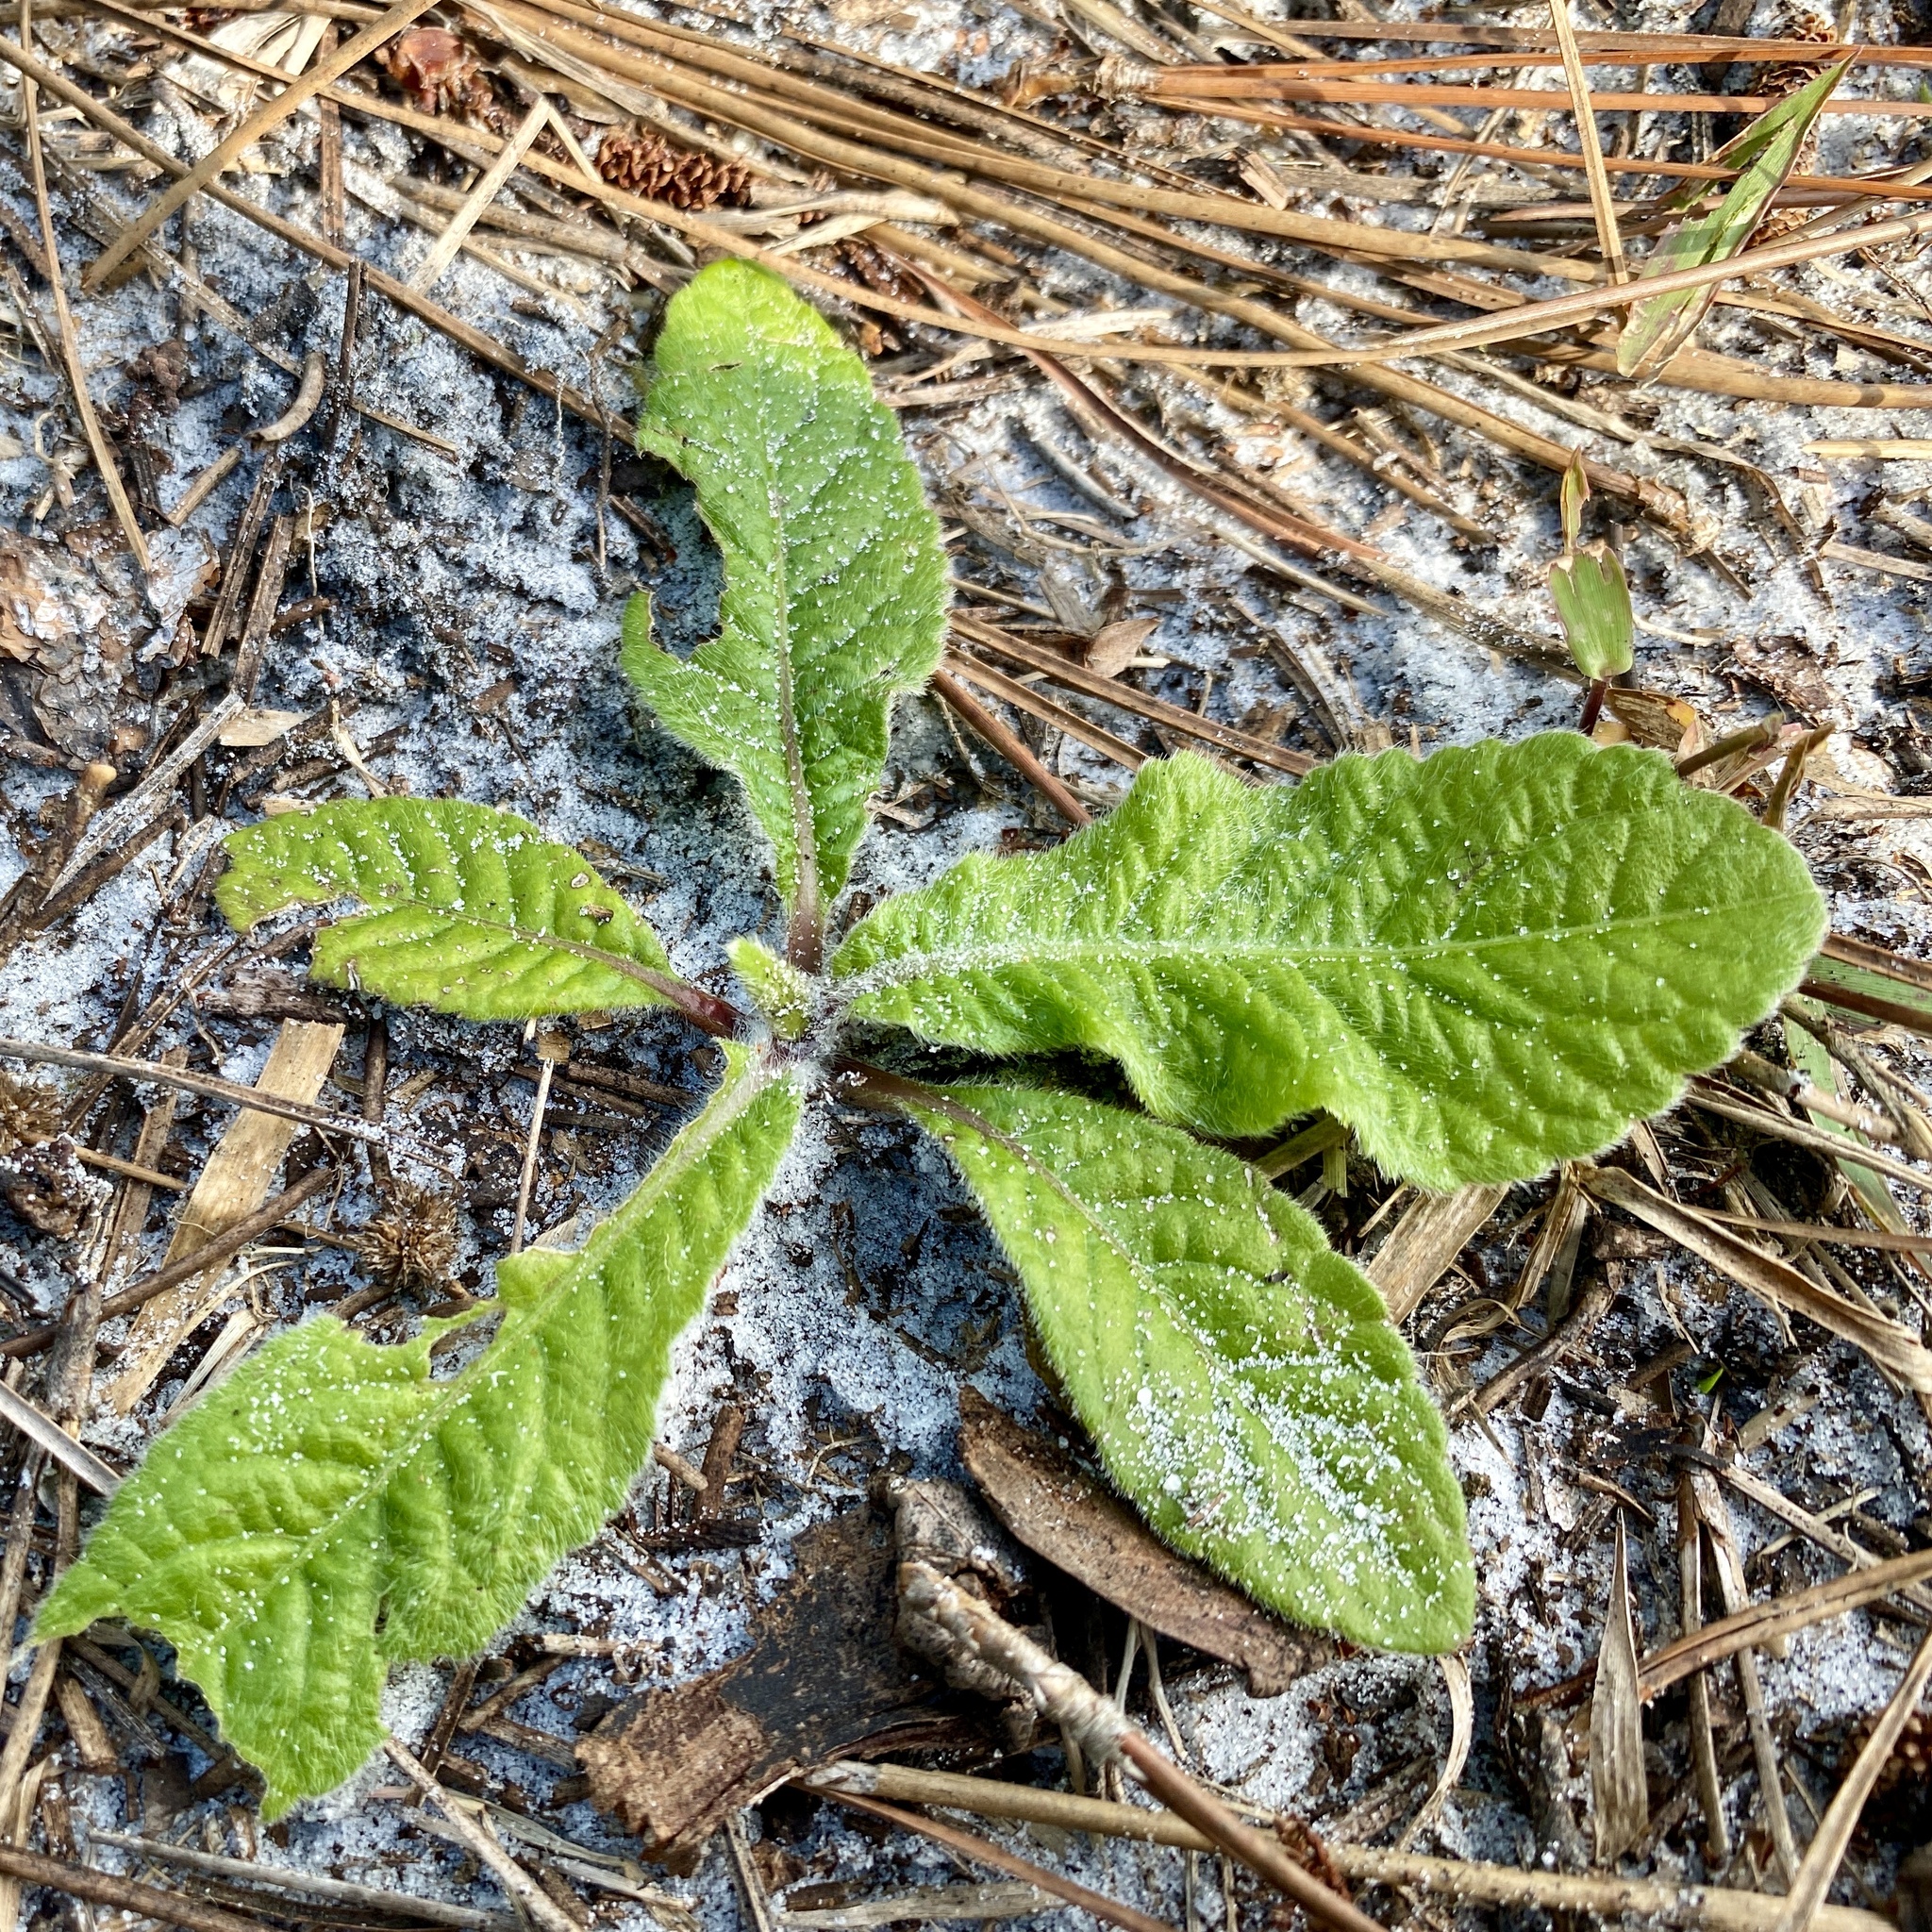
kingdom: Plantae
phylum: Tracheophyta
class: Magnoliopsida
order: Asterales
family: Asteraceae
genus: Elephantopus
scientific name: Elephantopus elatus
